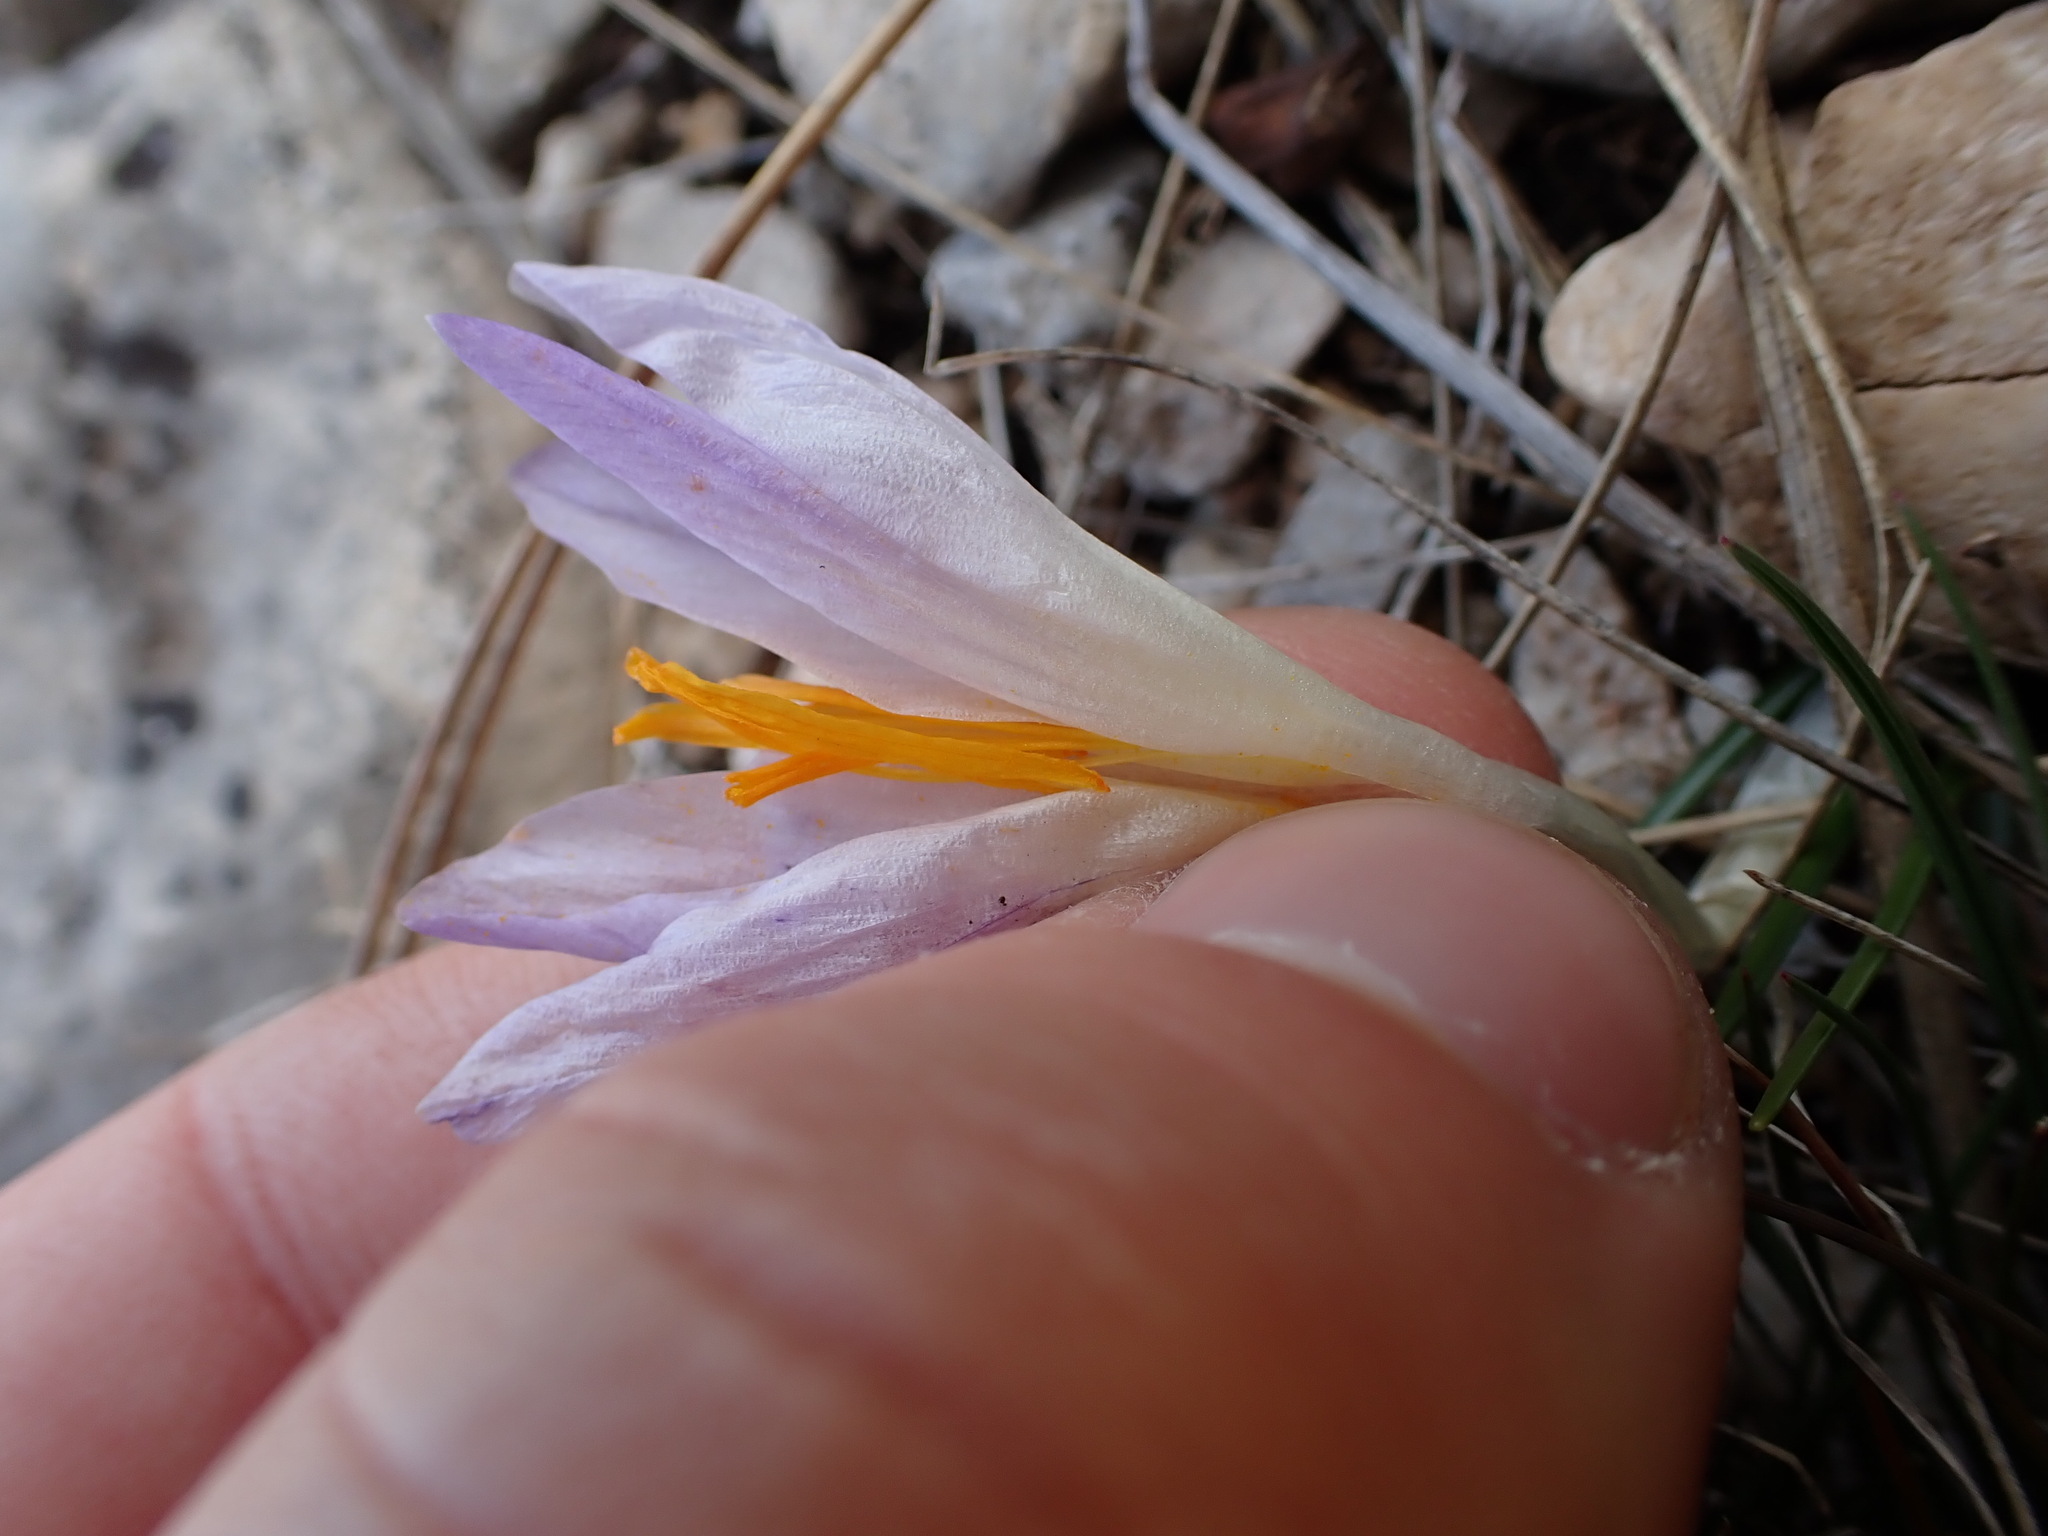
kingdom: Plantae
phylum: Tracheophyta
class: Liliopsida
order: Asparagales
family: Iridaceae
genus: Crocus
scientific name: Crocus versicolor
